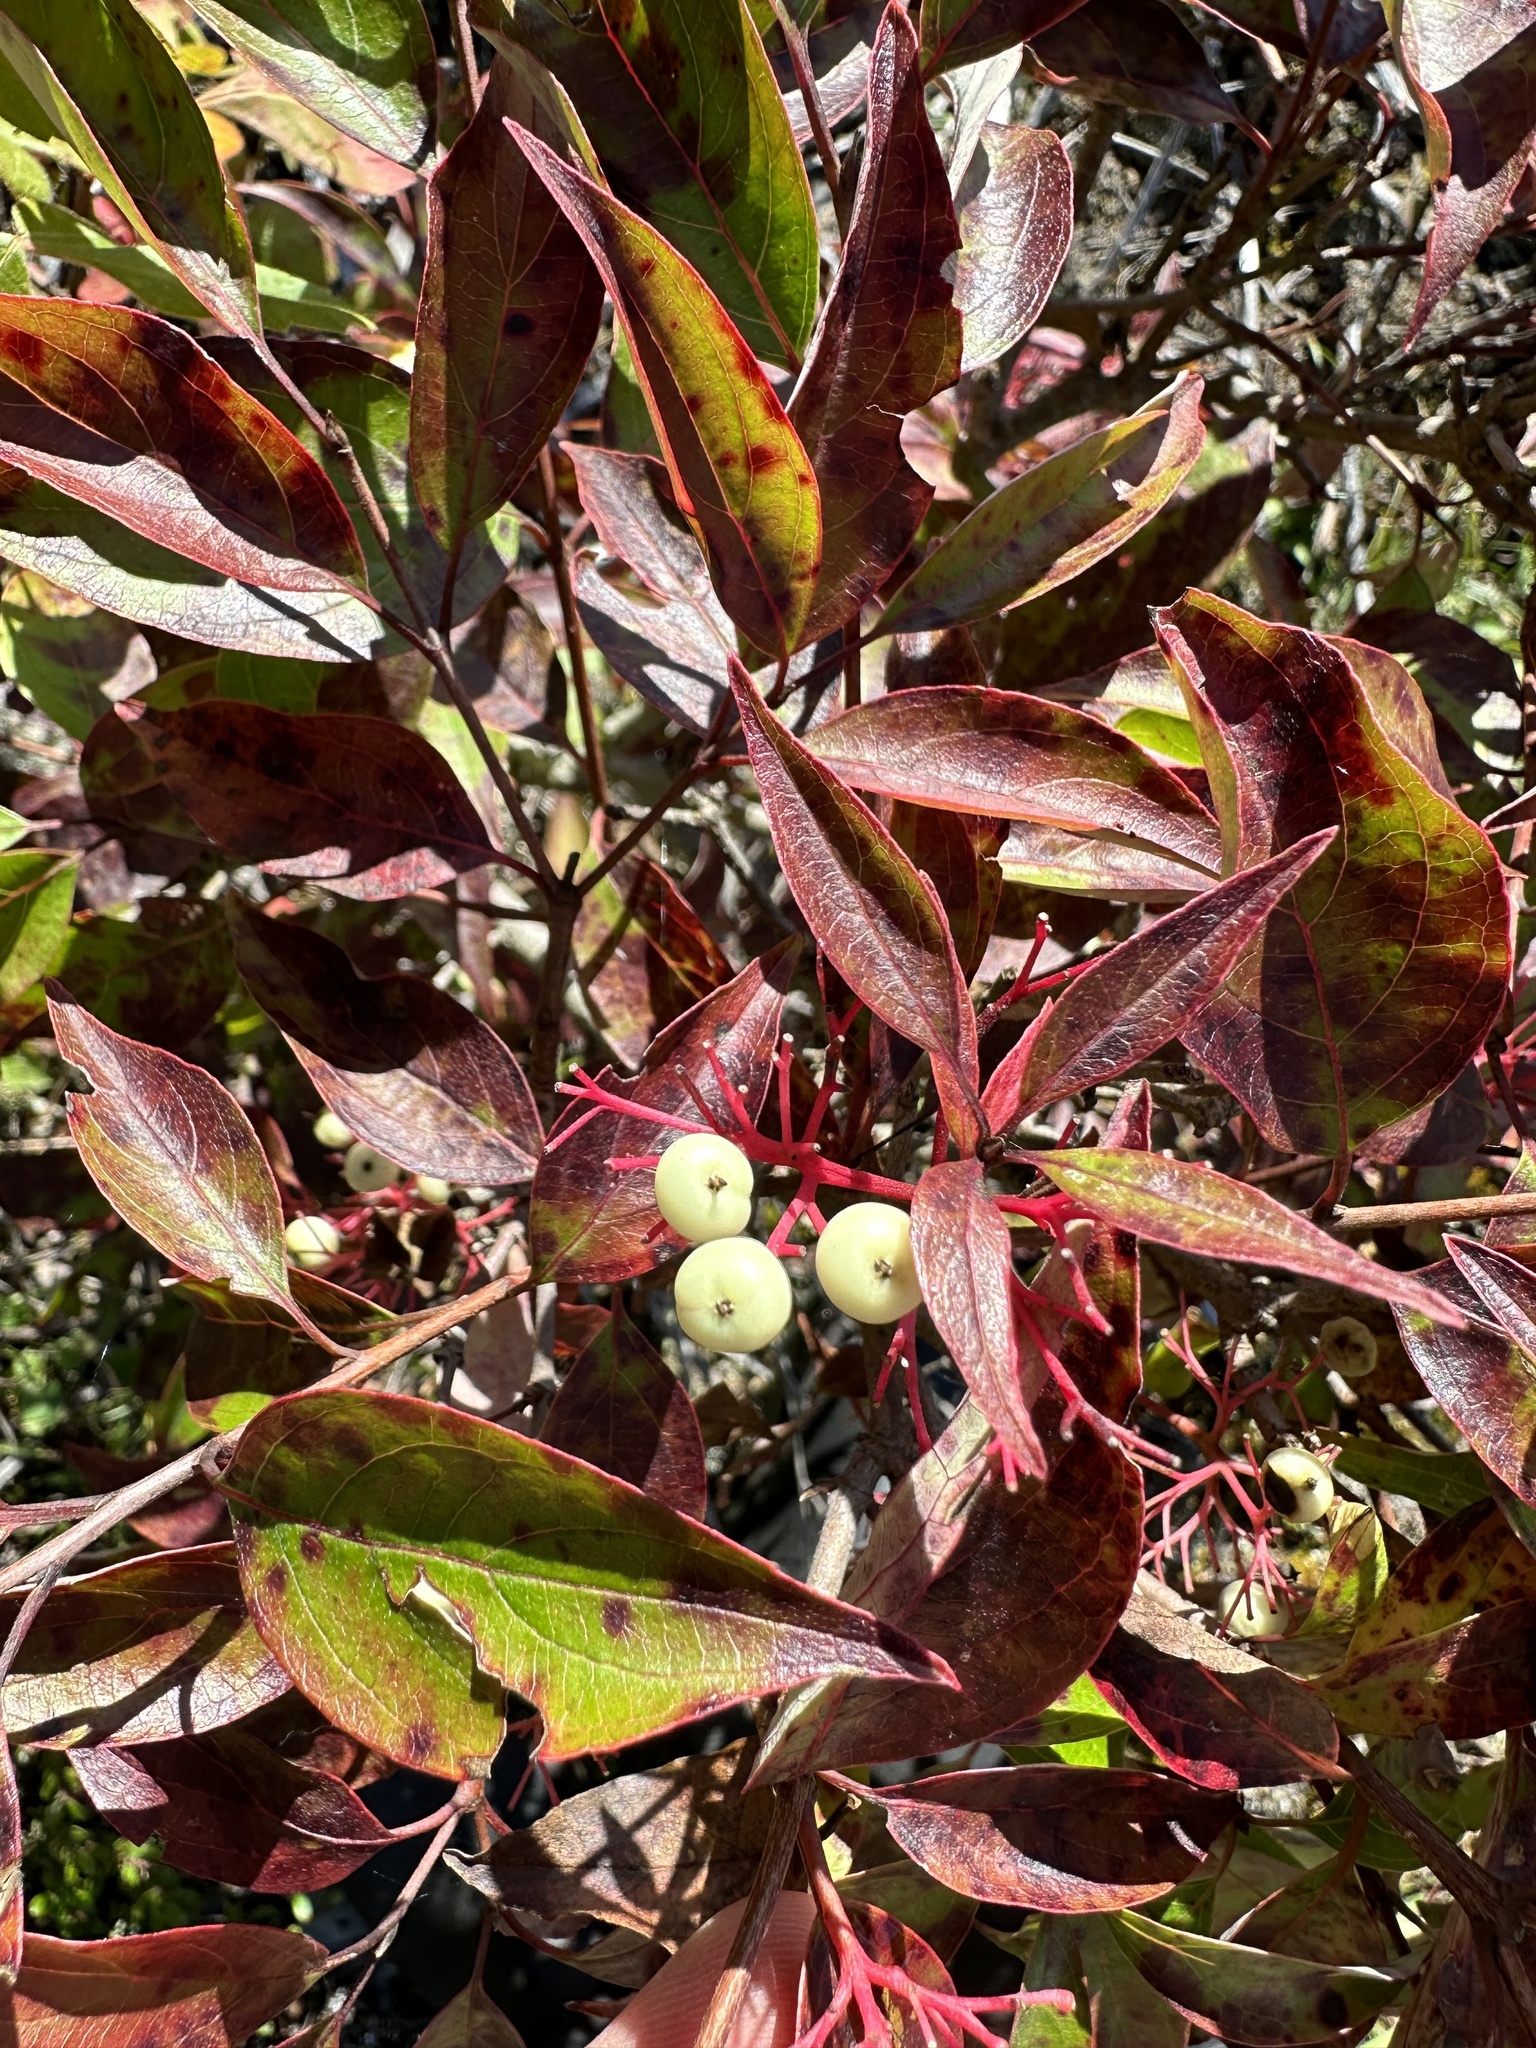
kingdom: Plantae
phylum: Tracheophyta
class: Magnoliopsida
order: Cornales
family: Cornaceae
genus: Cornus
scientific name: Cornus racemosa
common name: Panicled dogwood
